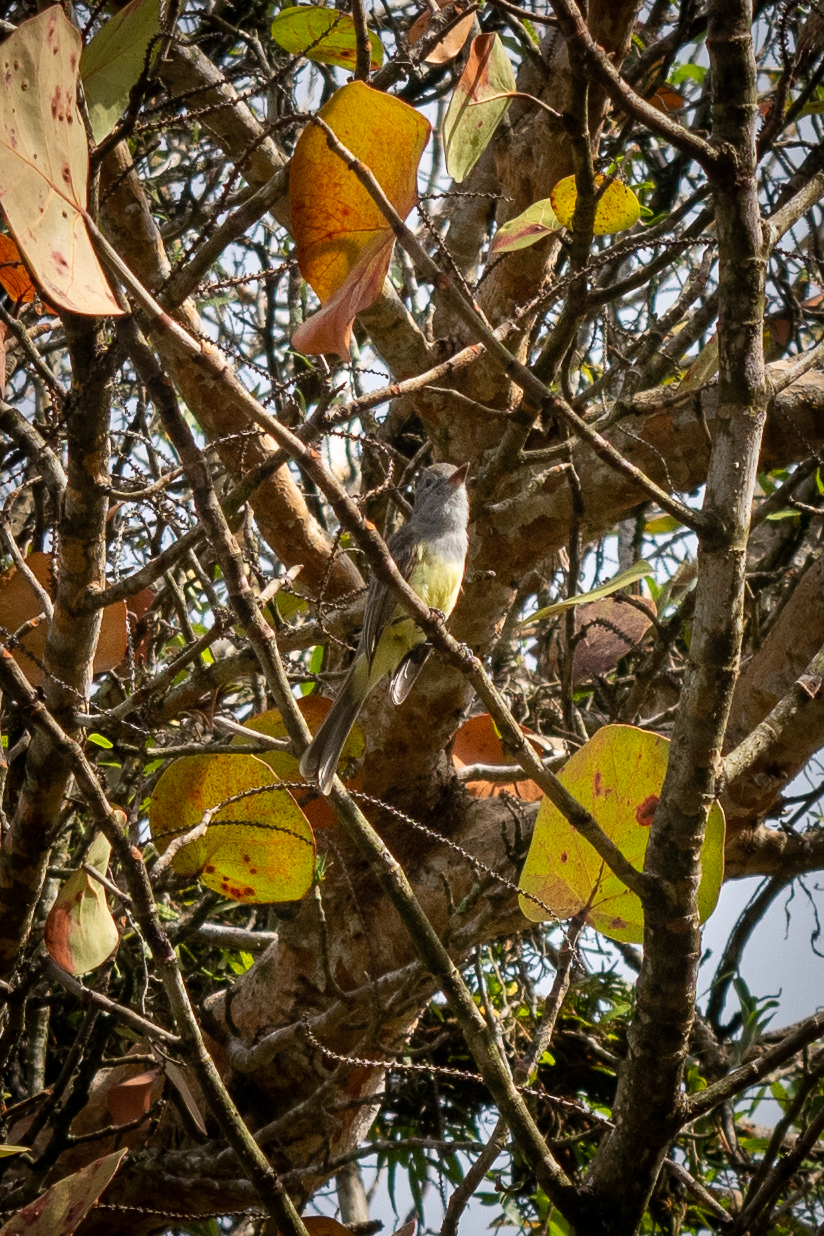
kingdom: Animalia
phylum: Chordata
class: Aves
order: Passeriformes
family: Tyrannidae
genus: Myiarchus
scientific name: Myiarchus panamensis
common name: Panama flycatcher
